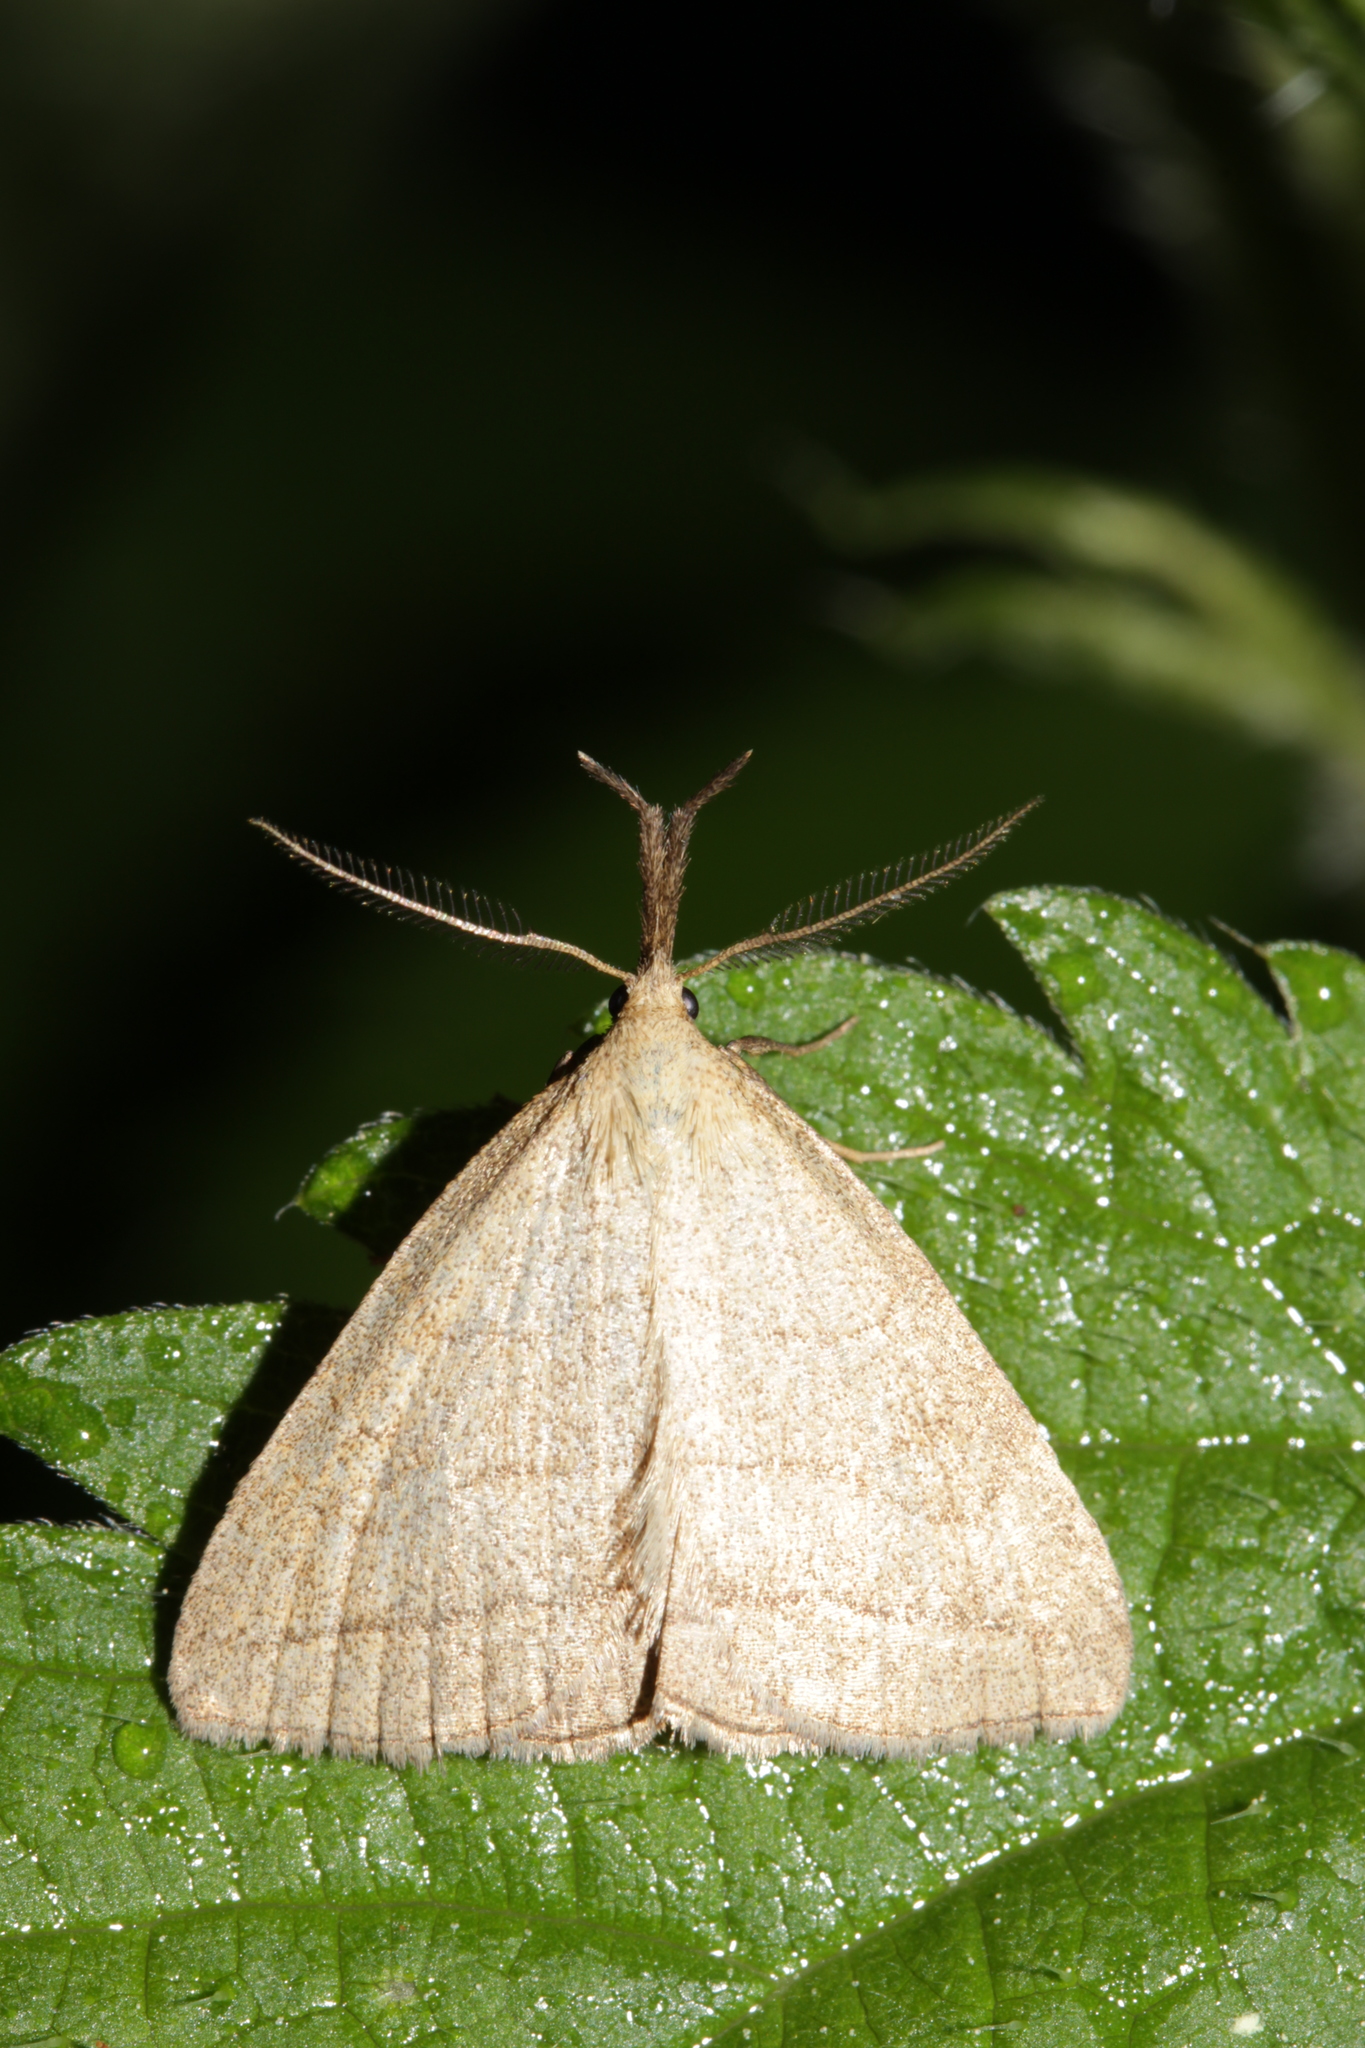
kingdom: Animalia
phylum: Arthropoda
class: Insecta
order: Lepidoptera
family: Erebidae
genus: Polypogon
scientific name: Polypogon tentacularia
